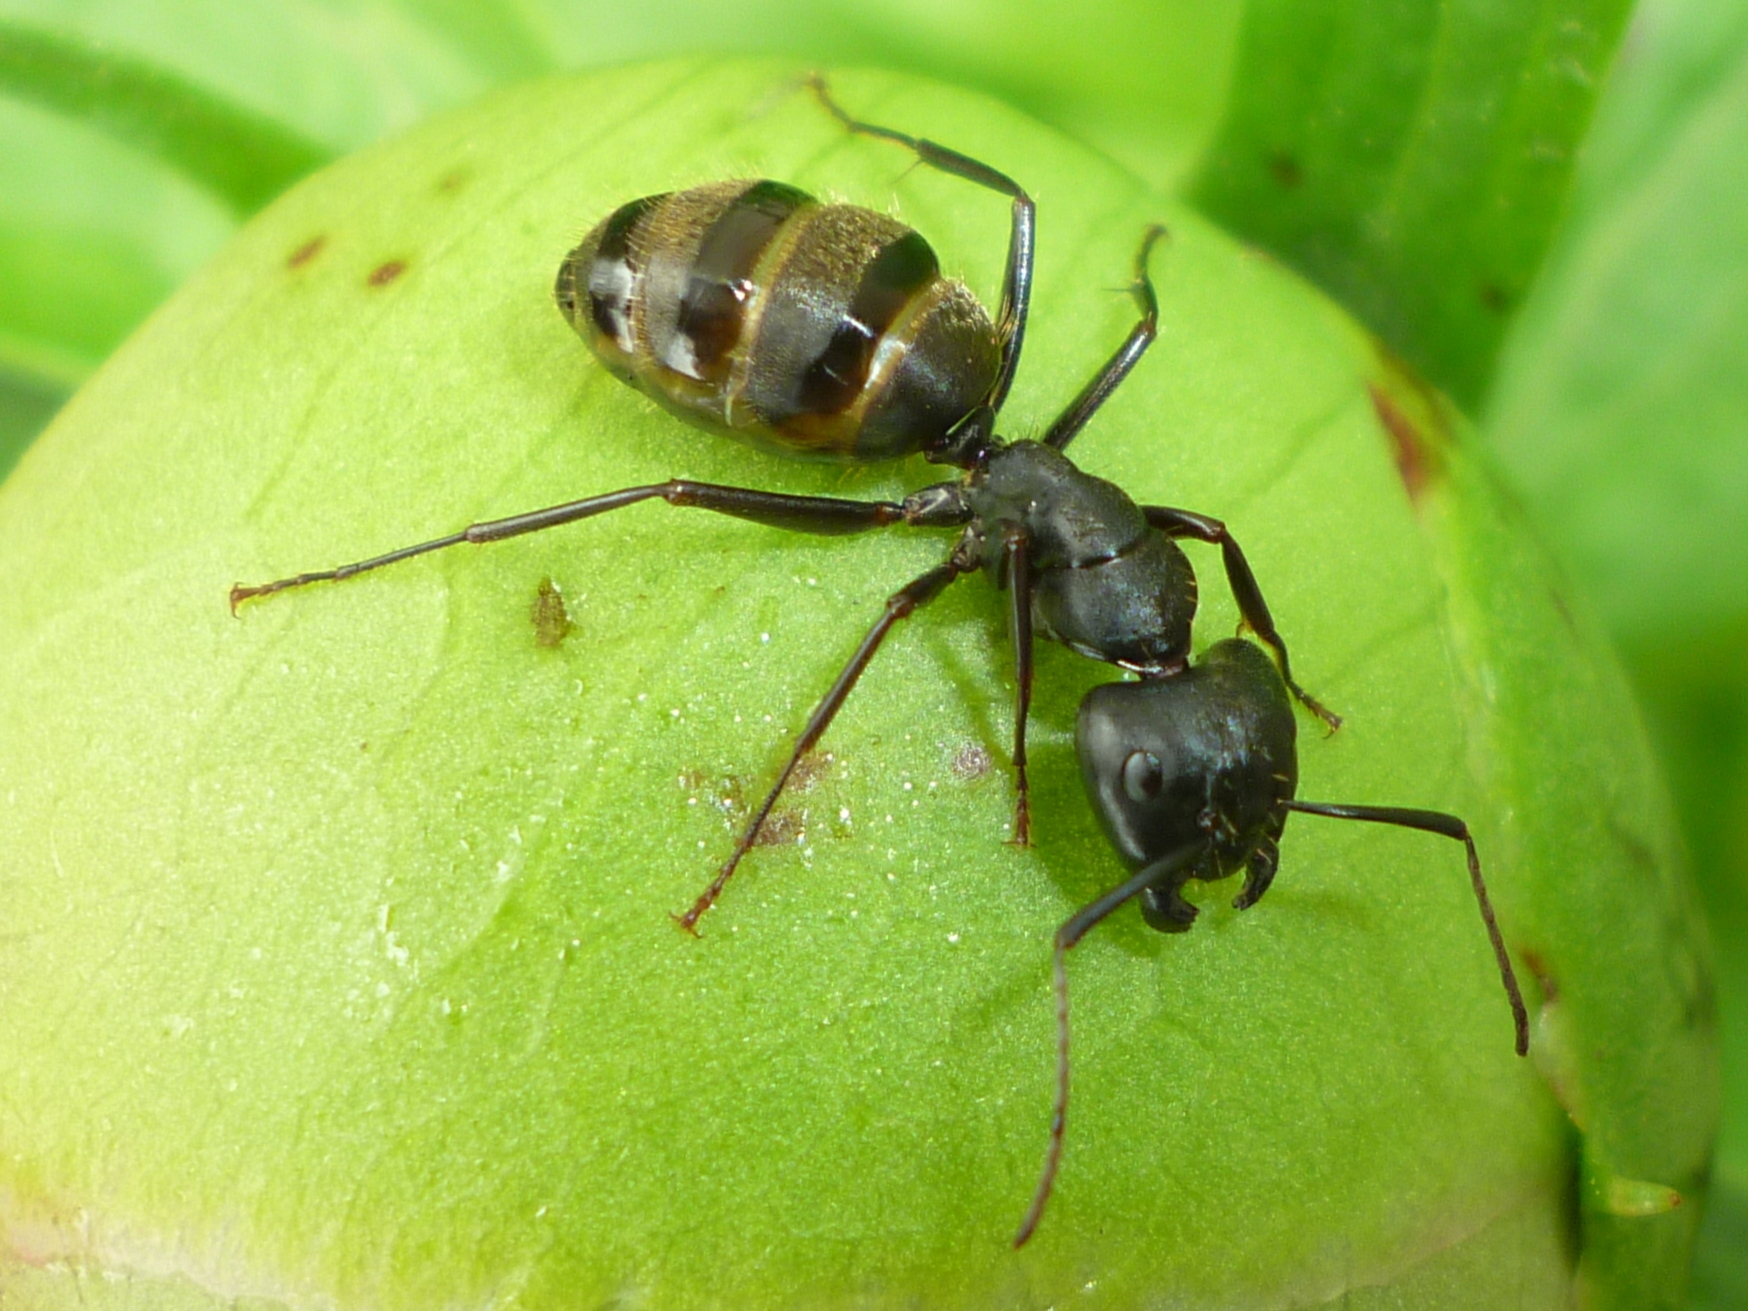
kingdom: Animalia
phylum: Arthropoda
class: Insecta
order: Hymenoptera
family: Formicidae
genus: Camponotus
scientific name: Camponotus pennsylvanicus
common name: Black carpenter ant
